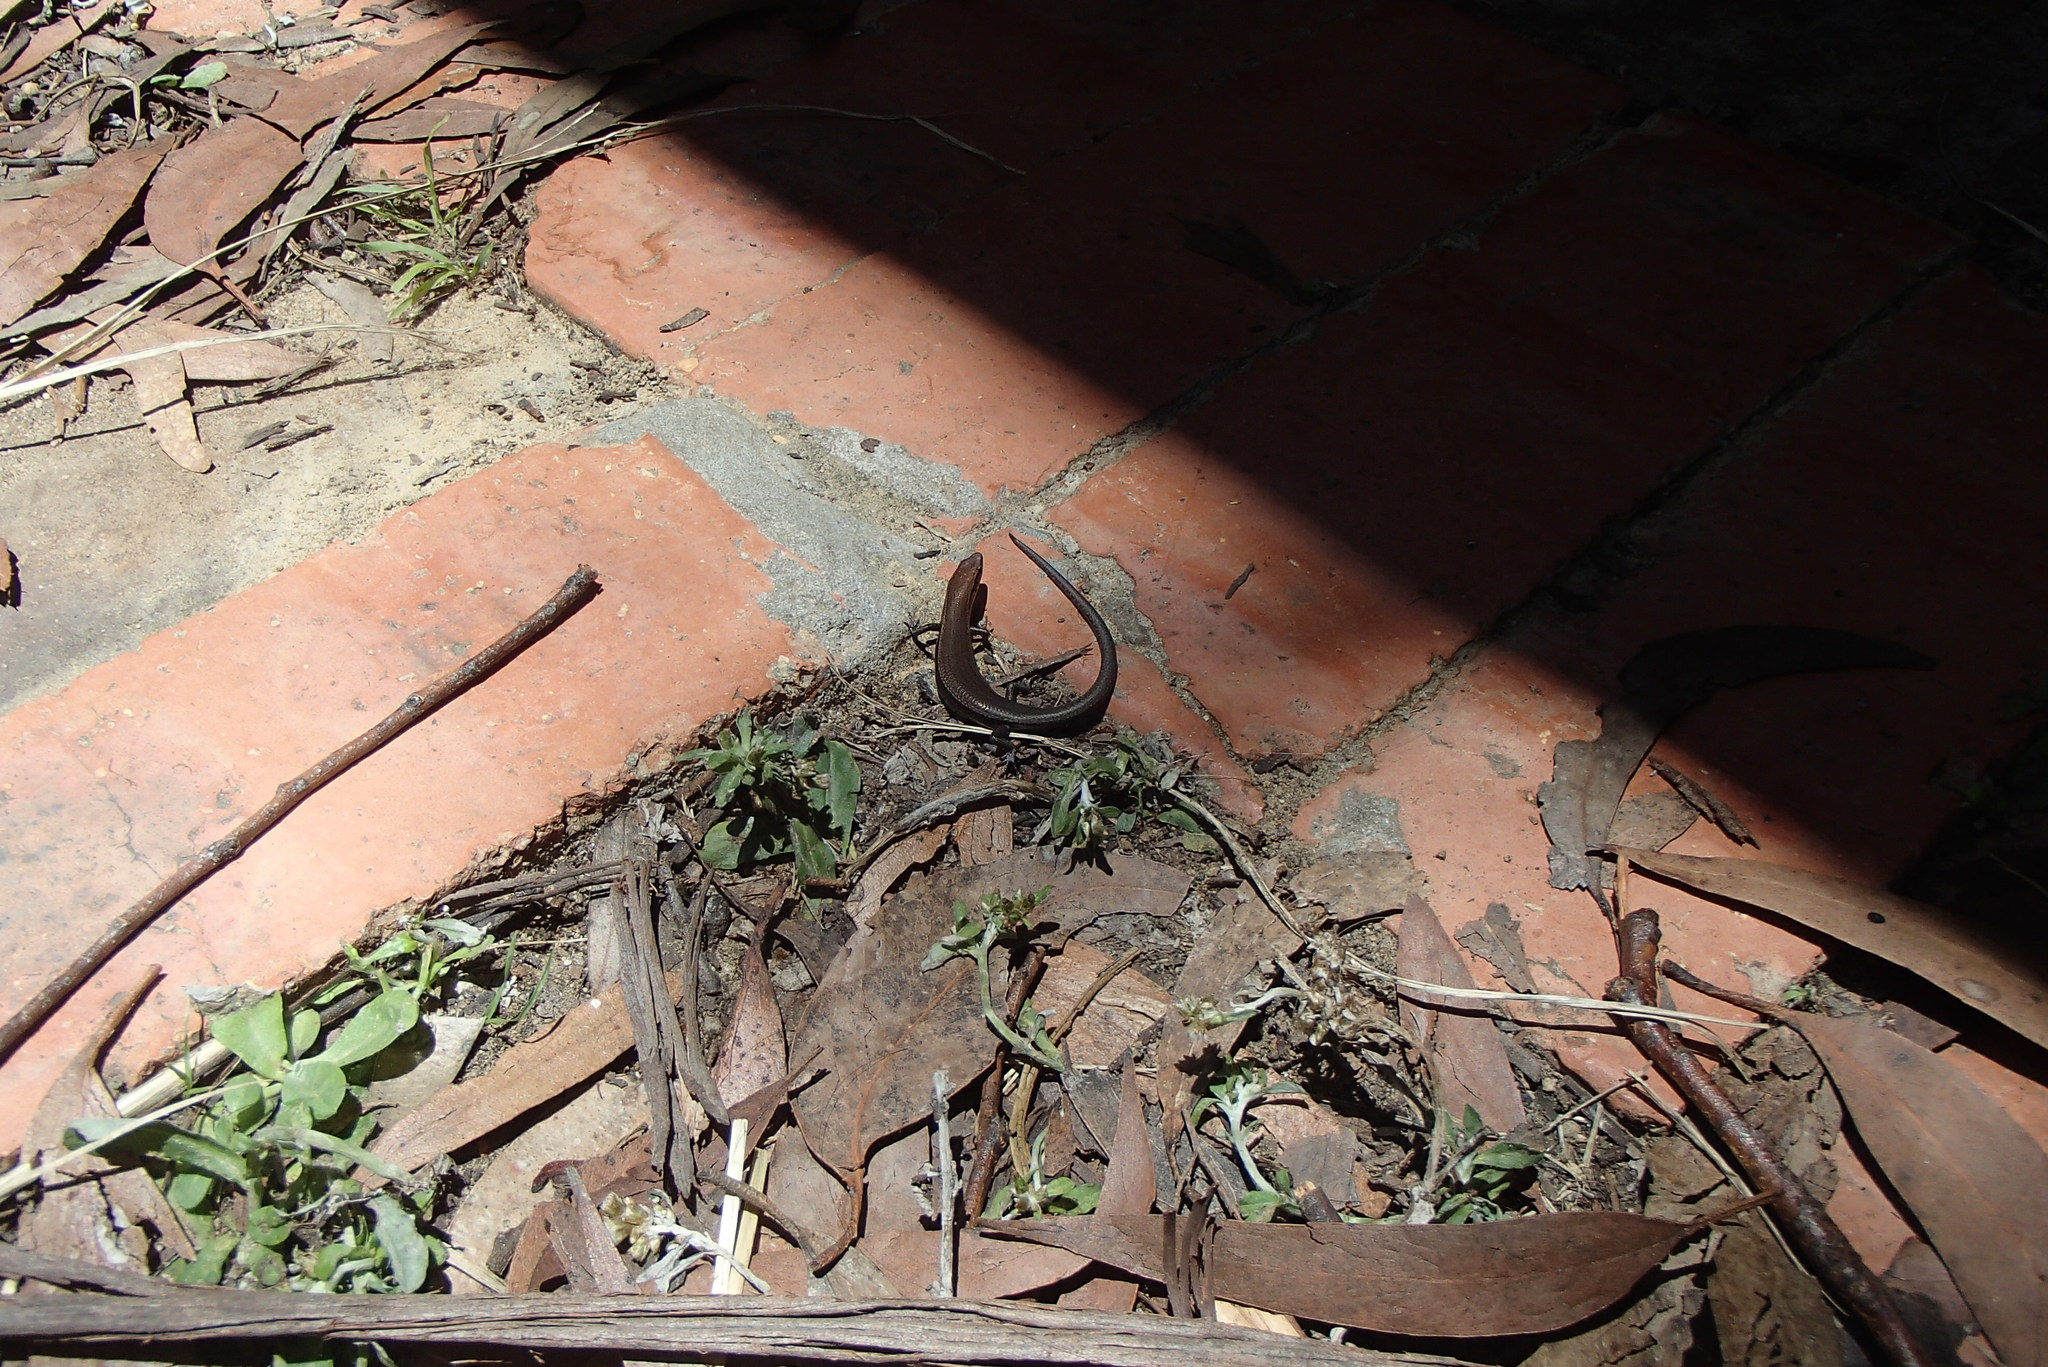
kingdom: Animalia
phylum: Chordata
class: Squamata
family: Scincidae
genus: Lampropholis
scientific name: Lampropholis delicata
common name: Plague skink
